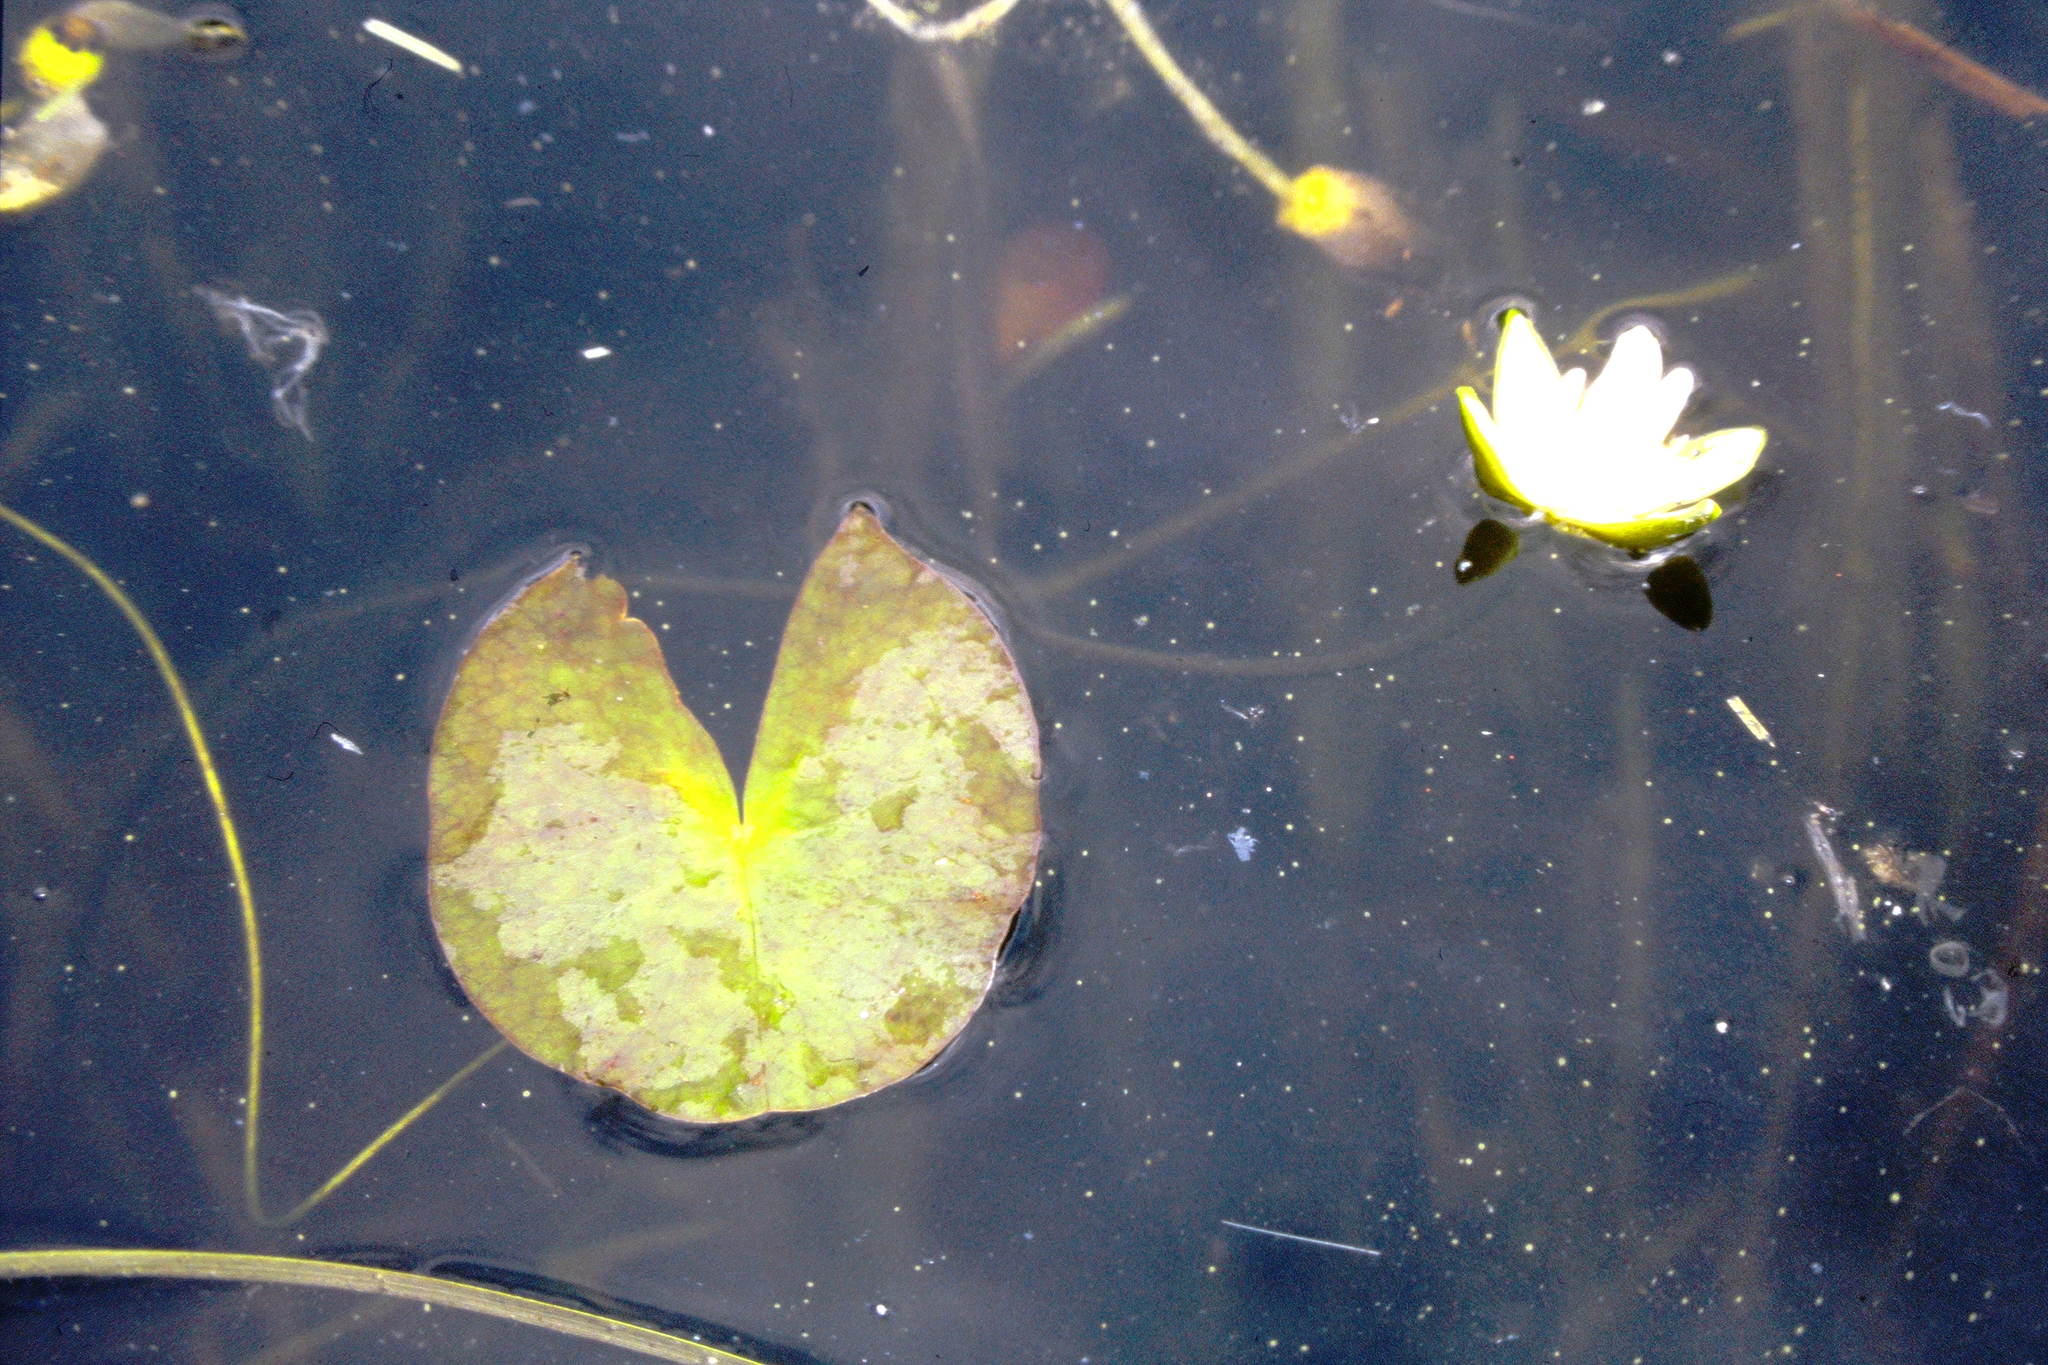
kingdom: Plantae
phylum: Tracheophyta
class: Magnoliopsida
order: Nymphaeales
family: Nymphaeaceae
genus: Nymphaea
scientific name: Nymphaea leibergii
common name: Dwarf water-lily
